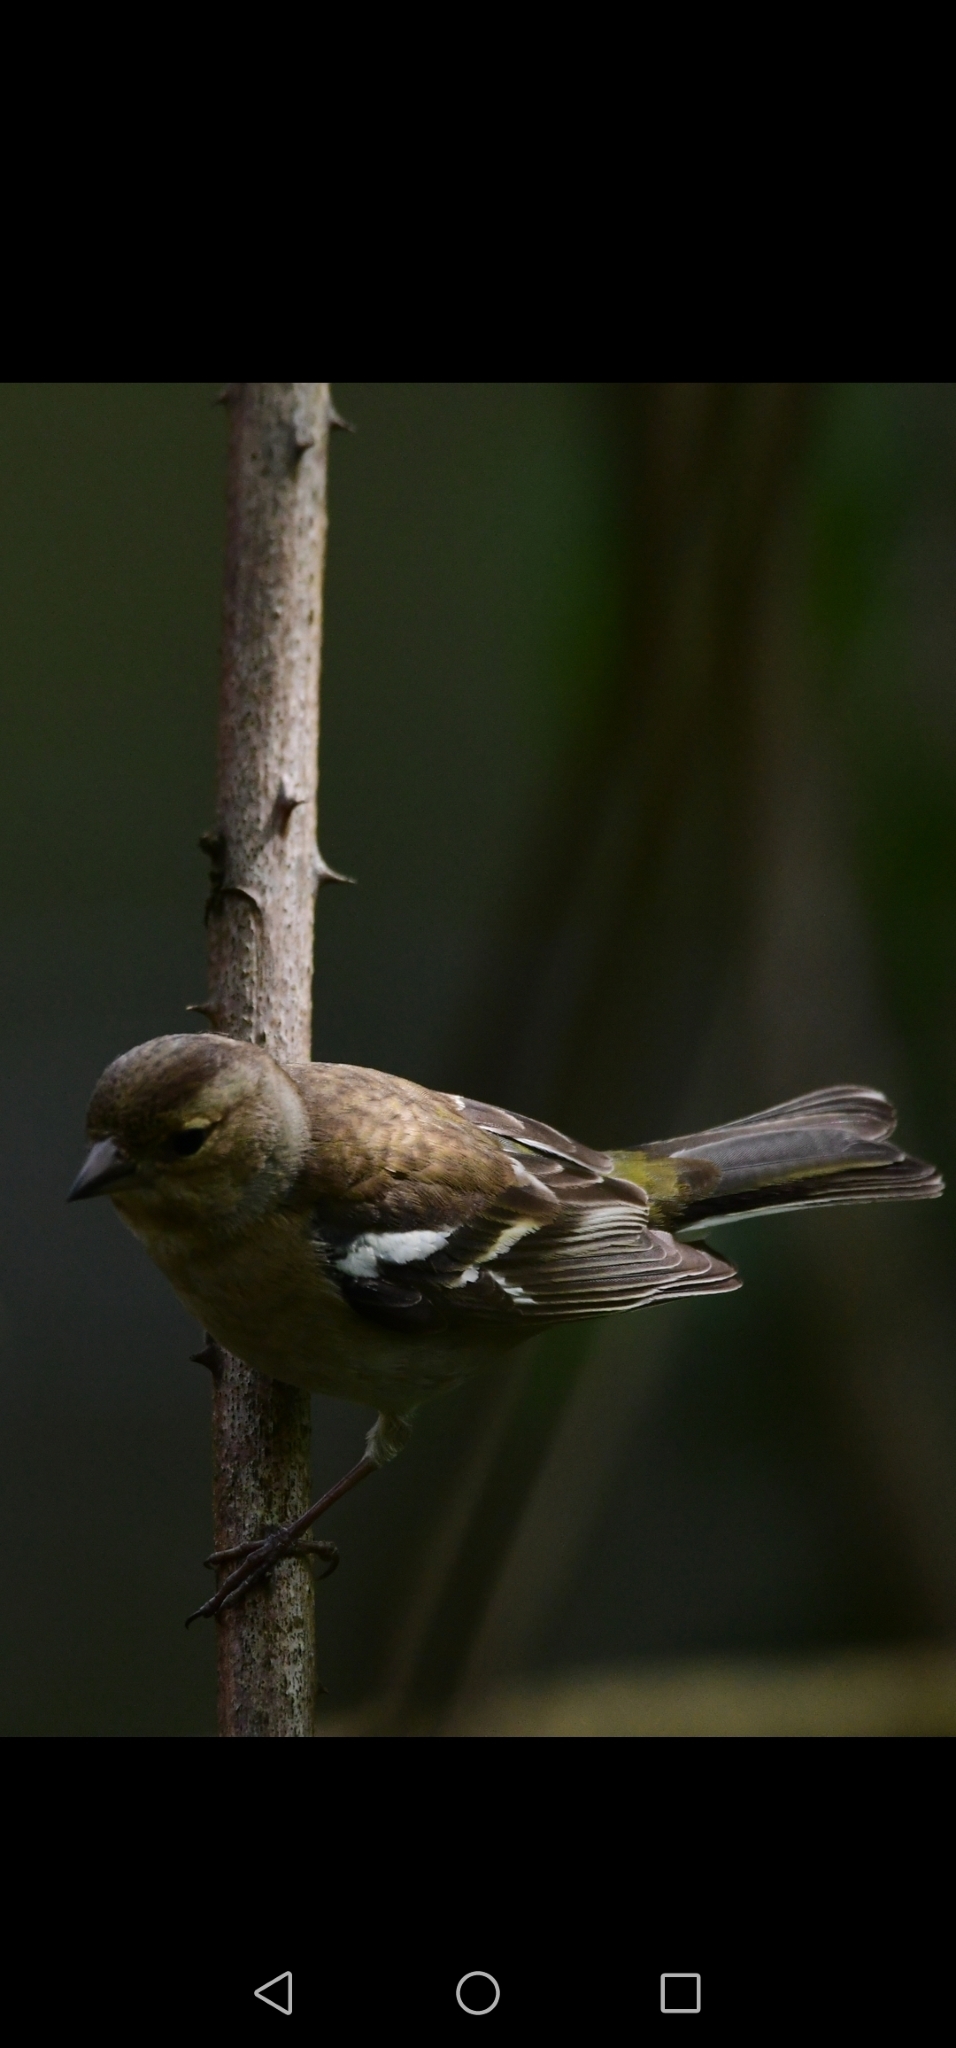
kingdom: Animalia
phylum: Chordata
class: Aves
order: Passeriformes
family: Fringillidae
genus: Fringilla
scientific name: Fringilla coelebs
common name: Common chaffinch
